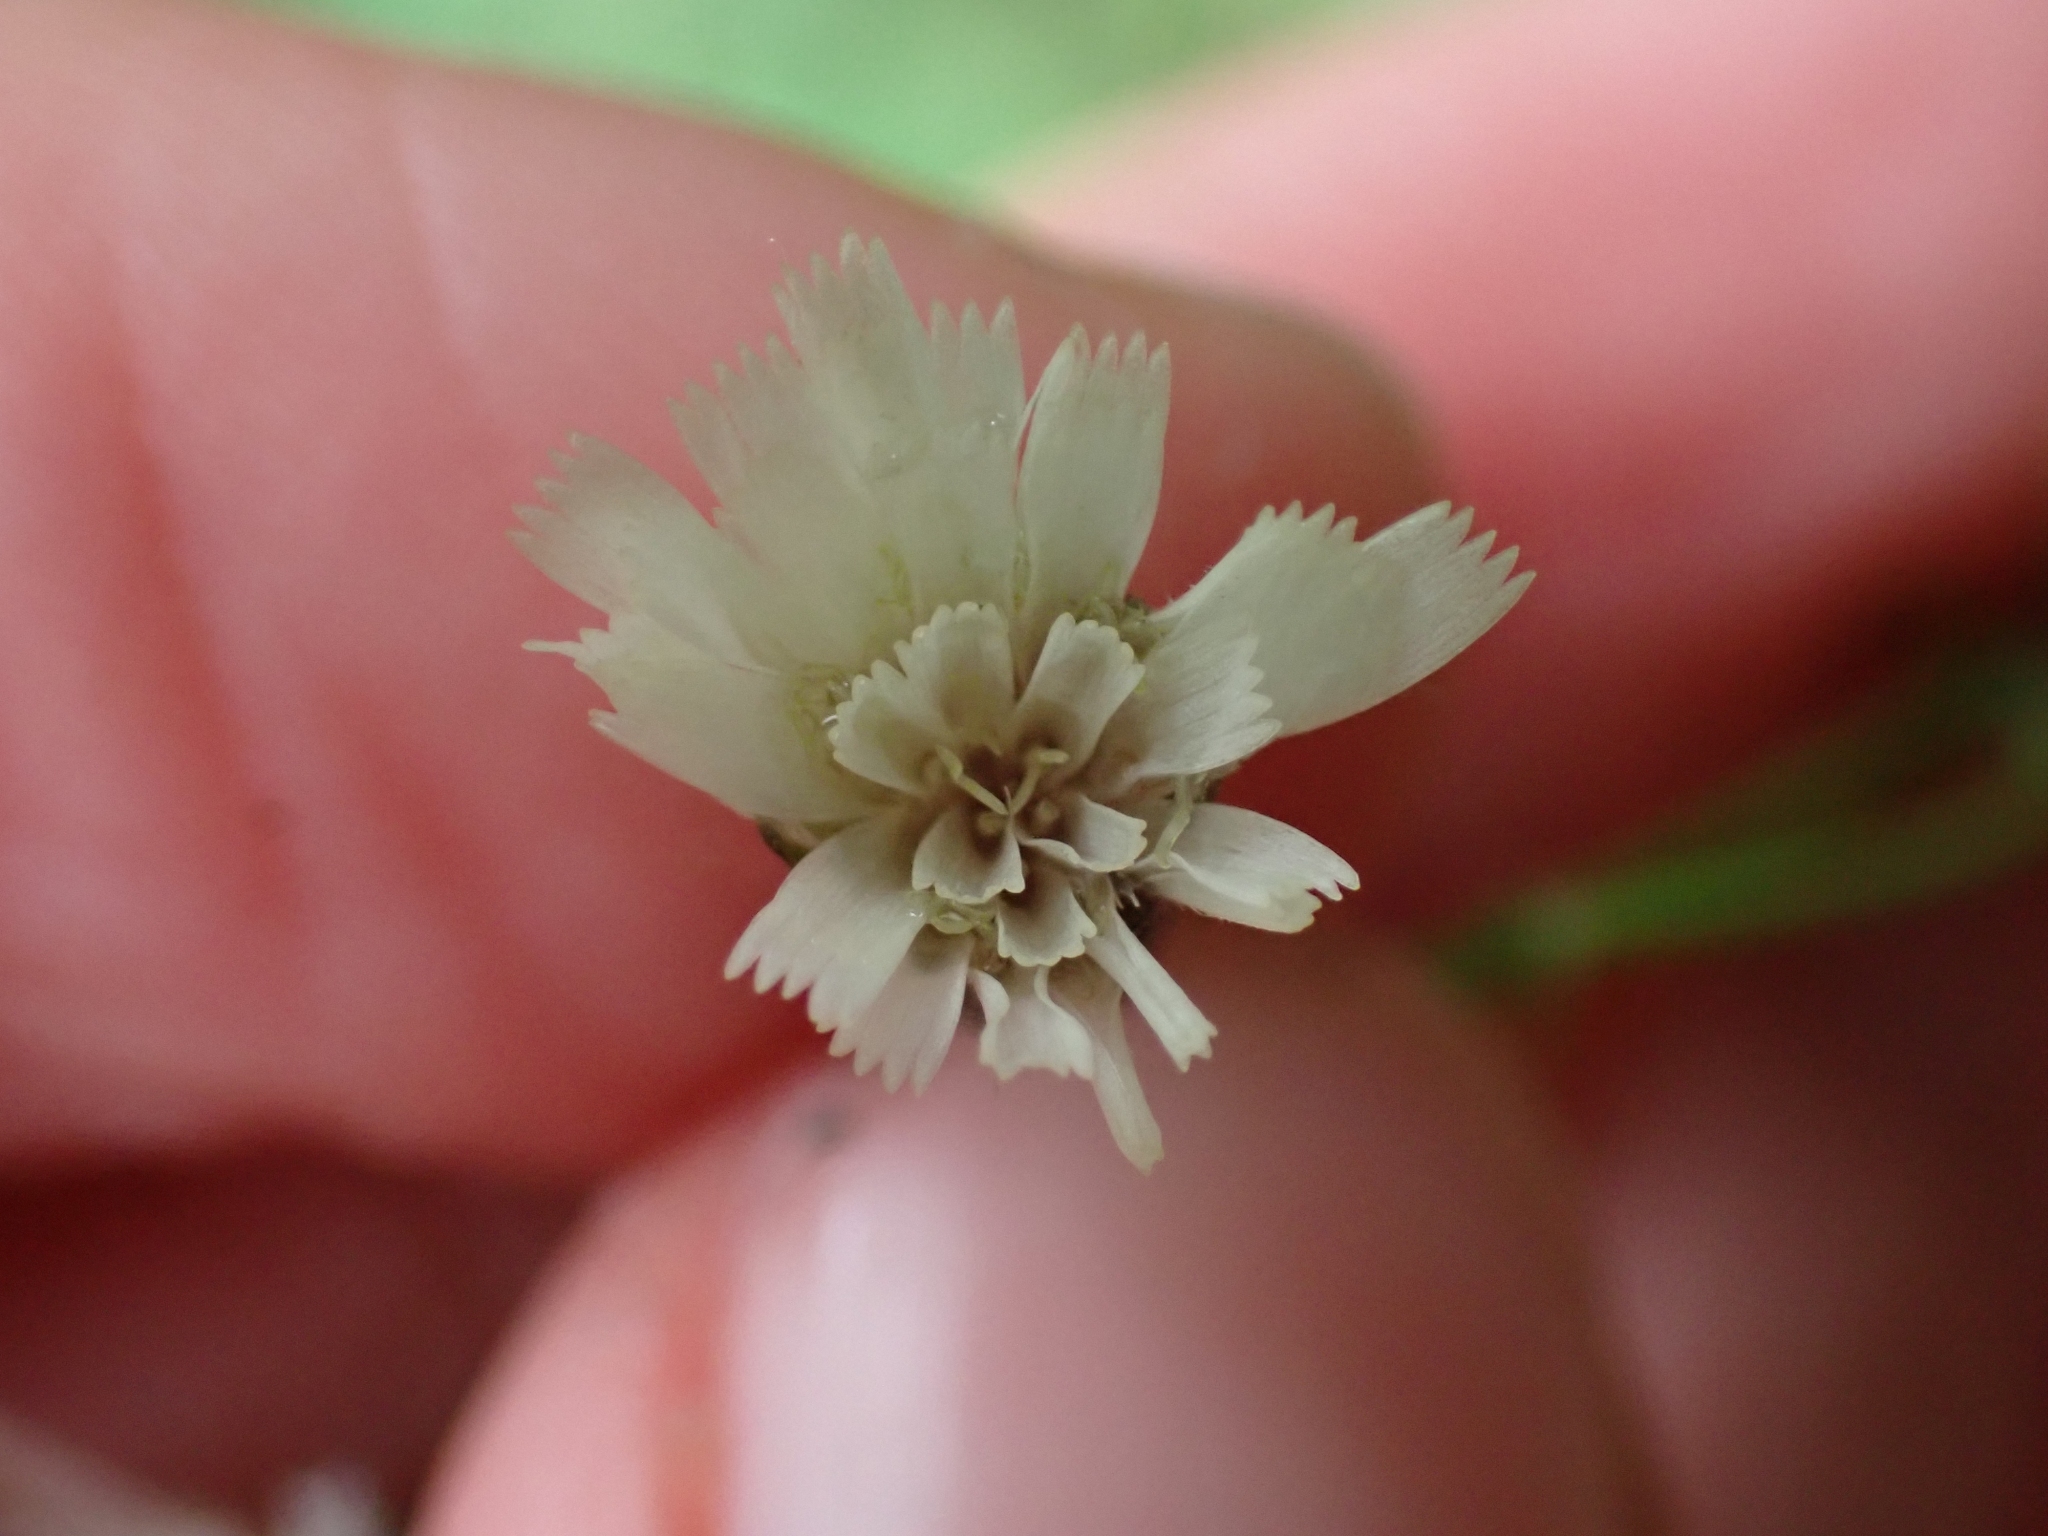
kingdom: Plantae
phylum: Tracheophyta
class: Magnoliopsida
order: Asterales
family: Asteraceae
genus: Hieracium
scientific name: Hieracium albiflorum
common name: White hawkweed
